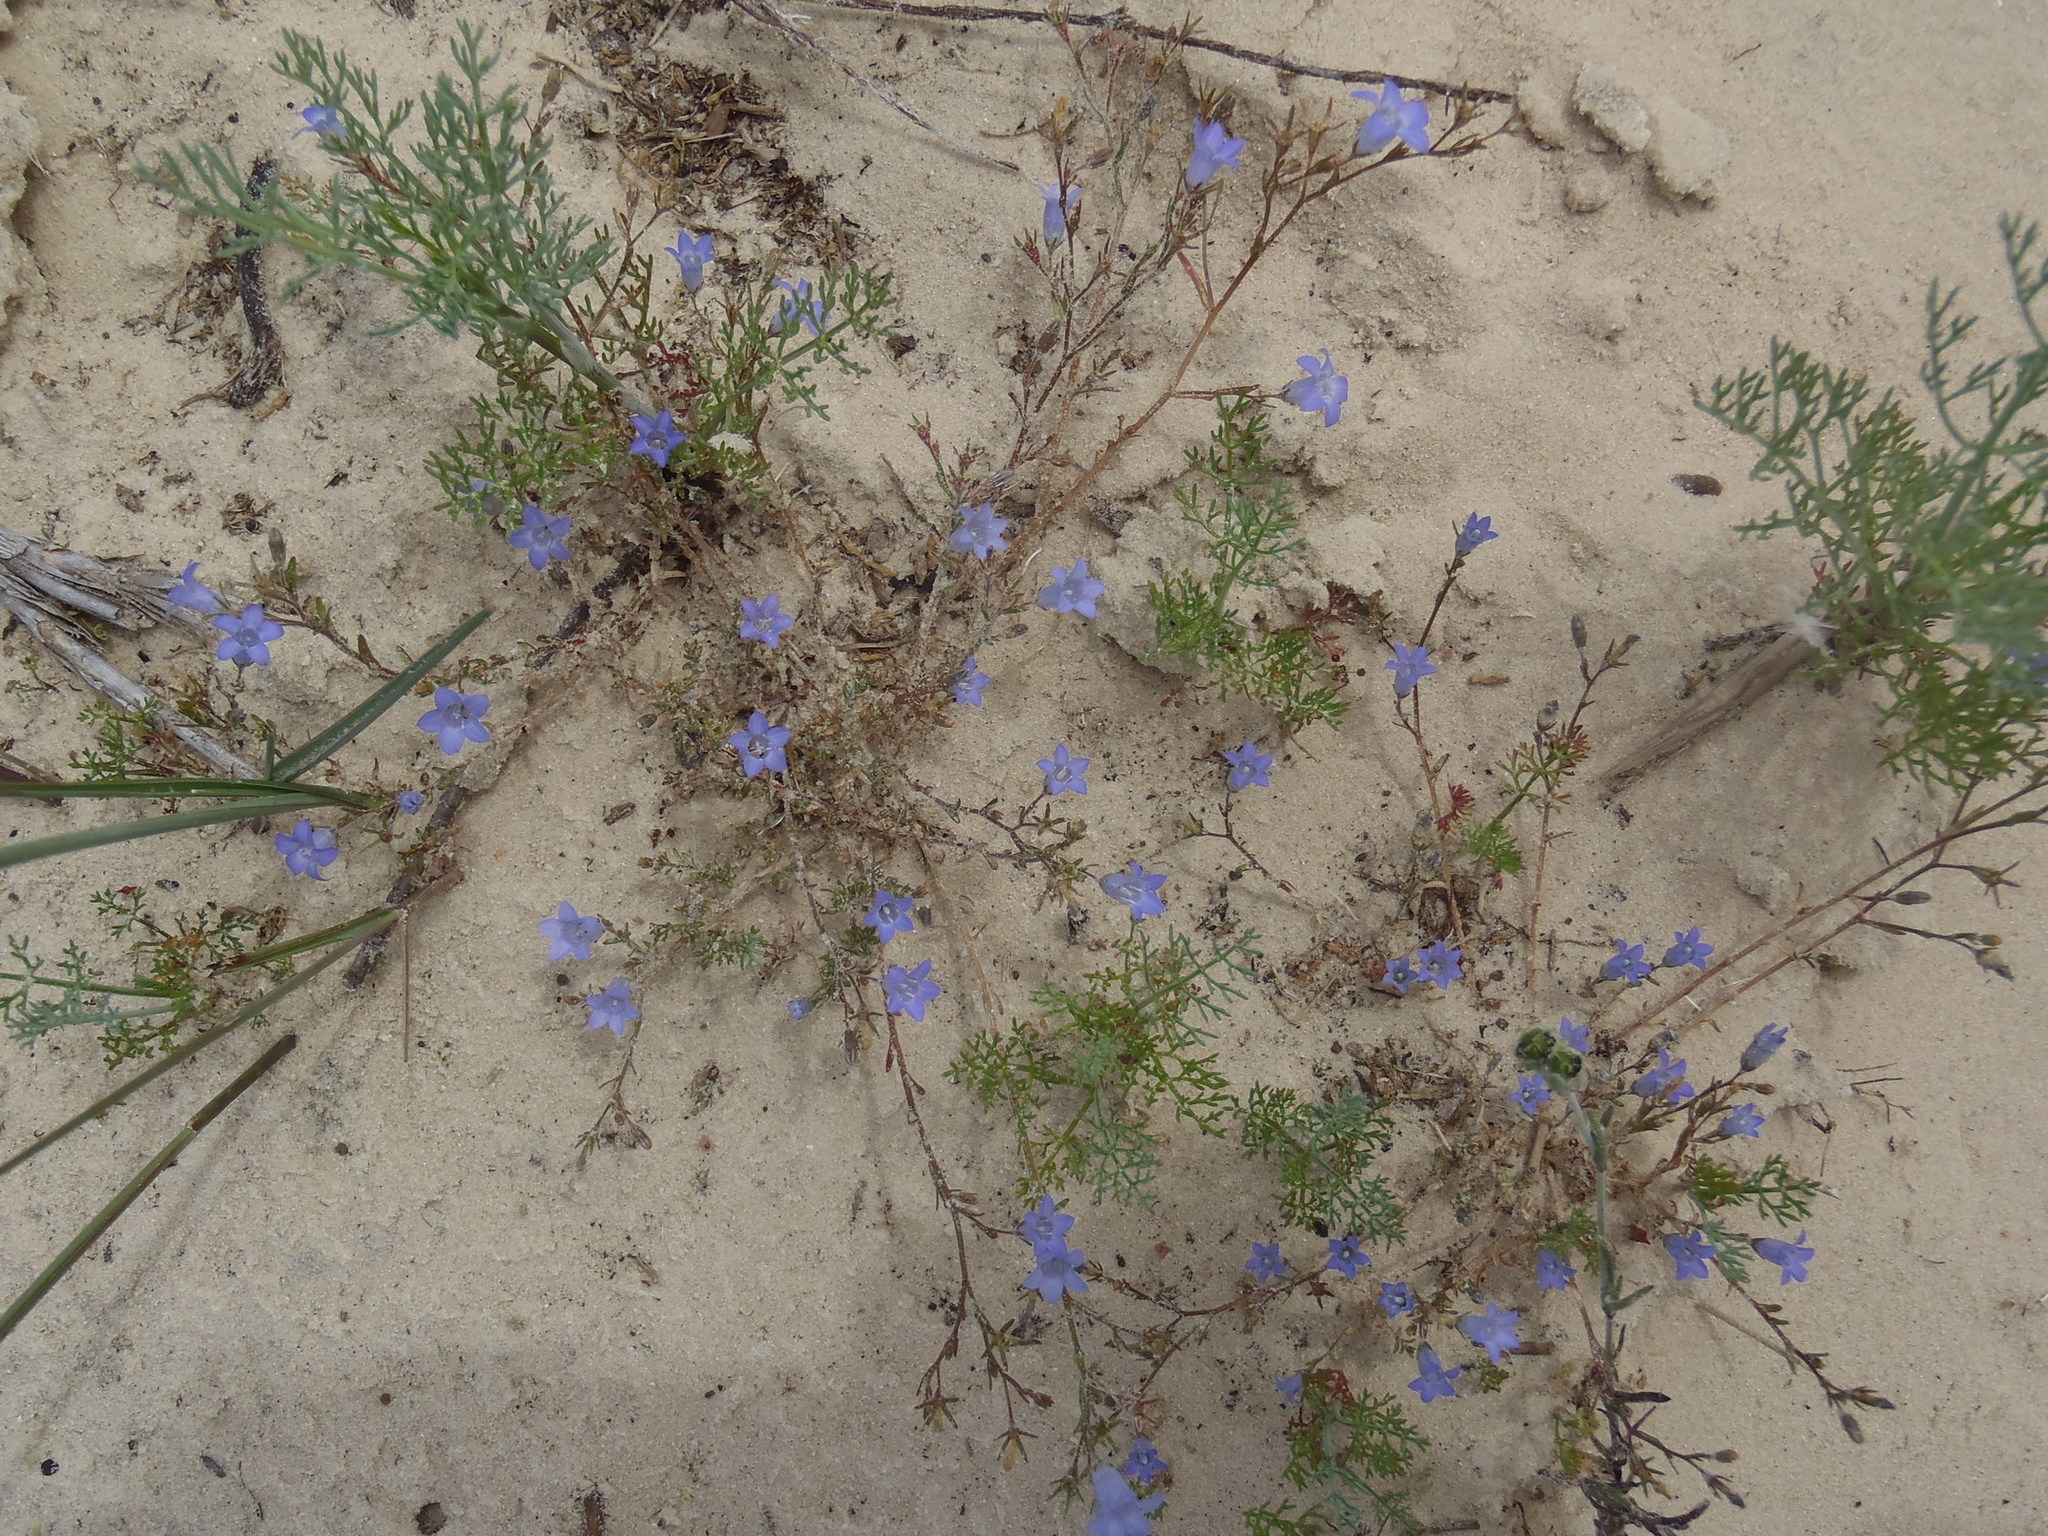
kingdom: Plantae
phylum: Tracheophyta
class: Magnoliopsida
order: Asterales
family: Campanulaceae
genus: Wahlenbergia
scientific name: Wahlenbergia paniculata
